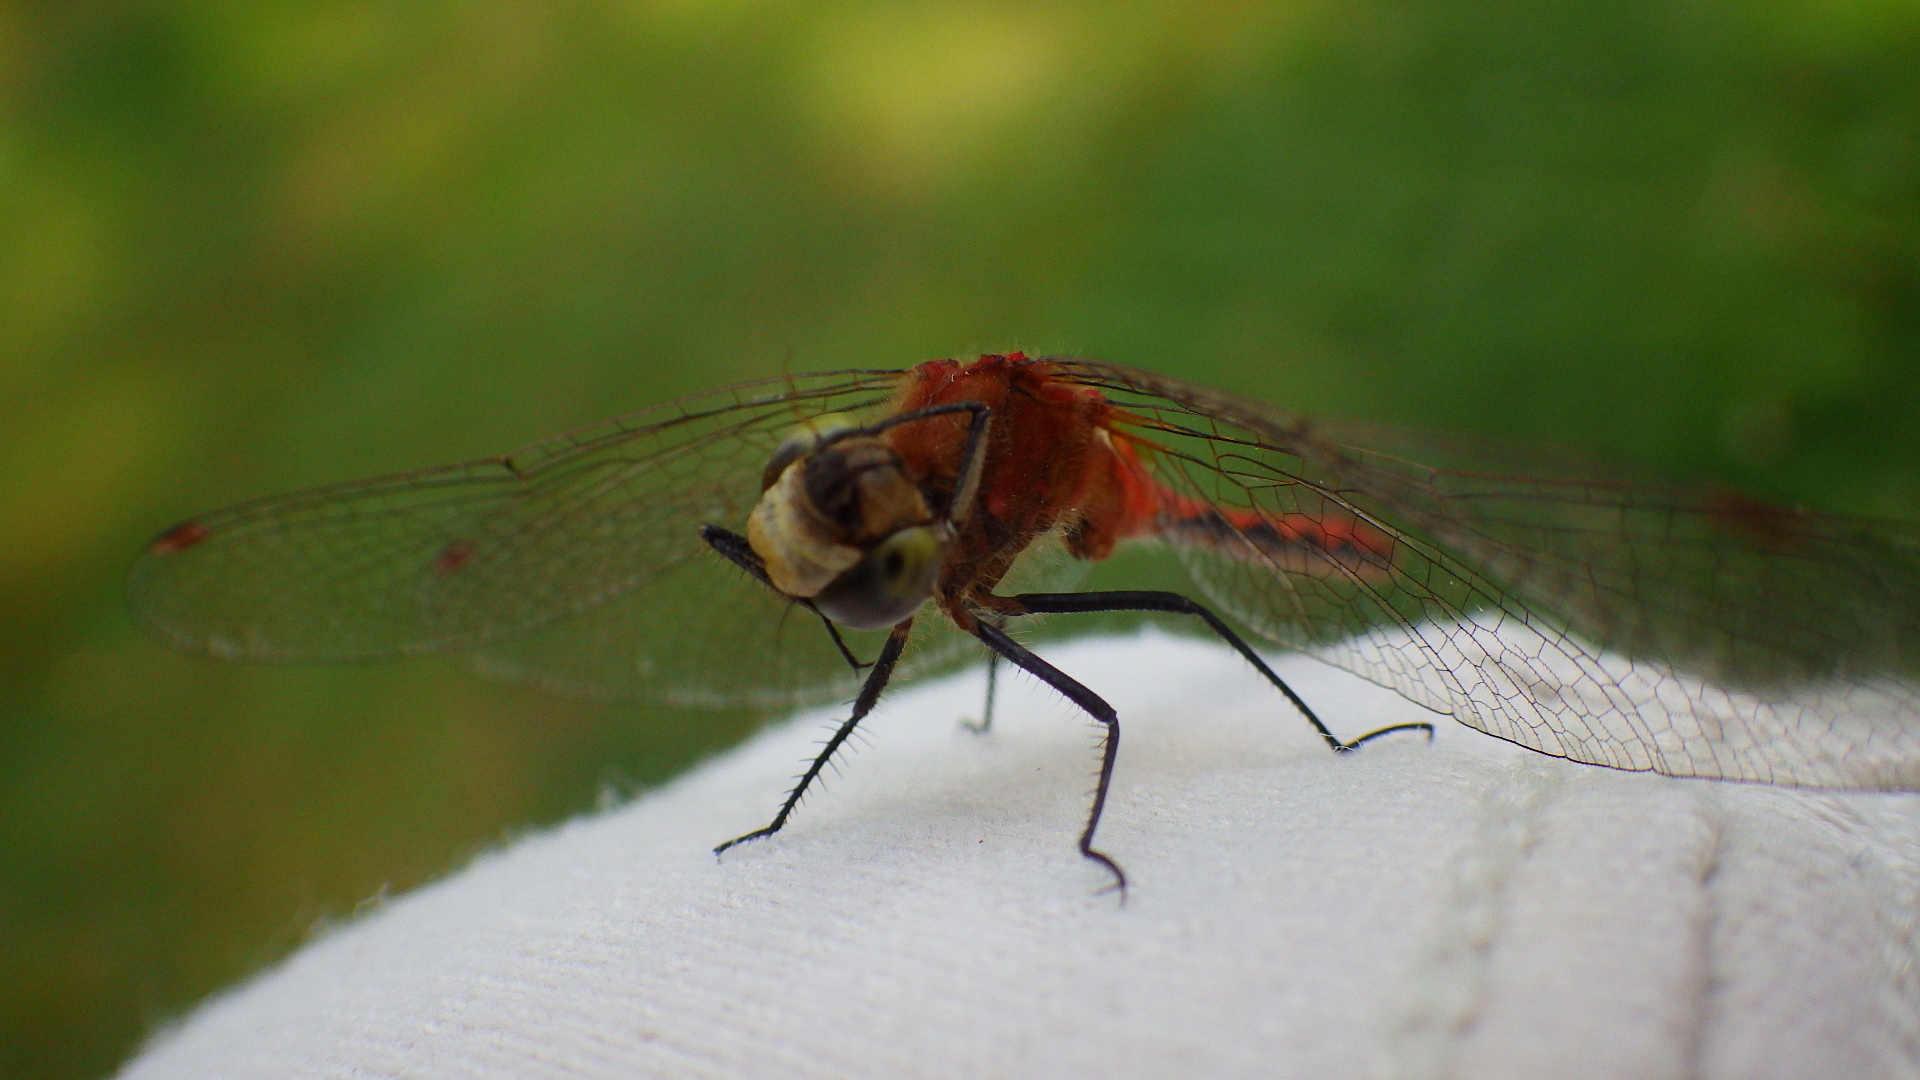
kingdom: Animalia
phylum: Arthropoda
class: Insecta
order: Odonata
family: Libellulidae
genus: Sympetrum
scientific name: Sympetrum obtrusum
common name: White-faced meadowhawk
